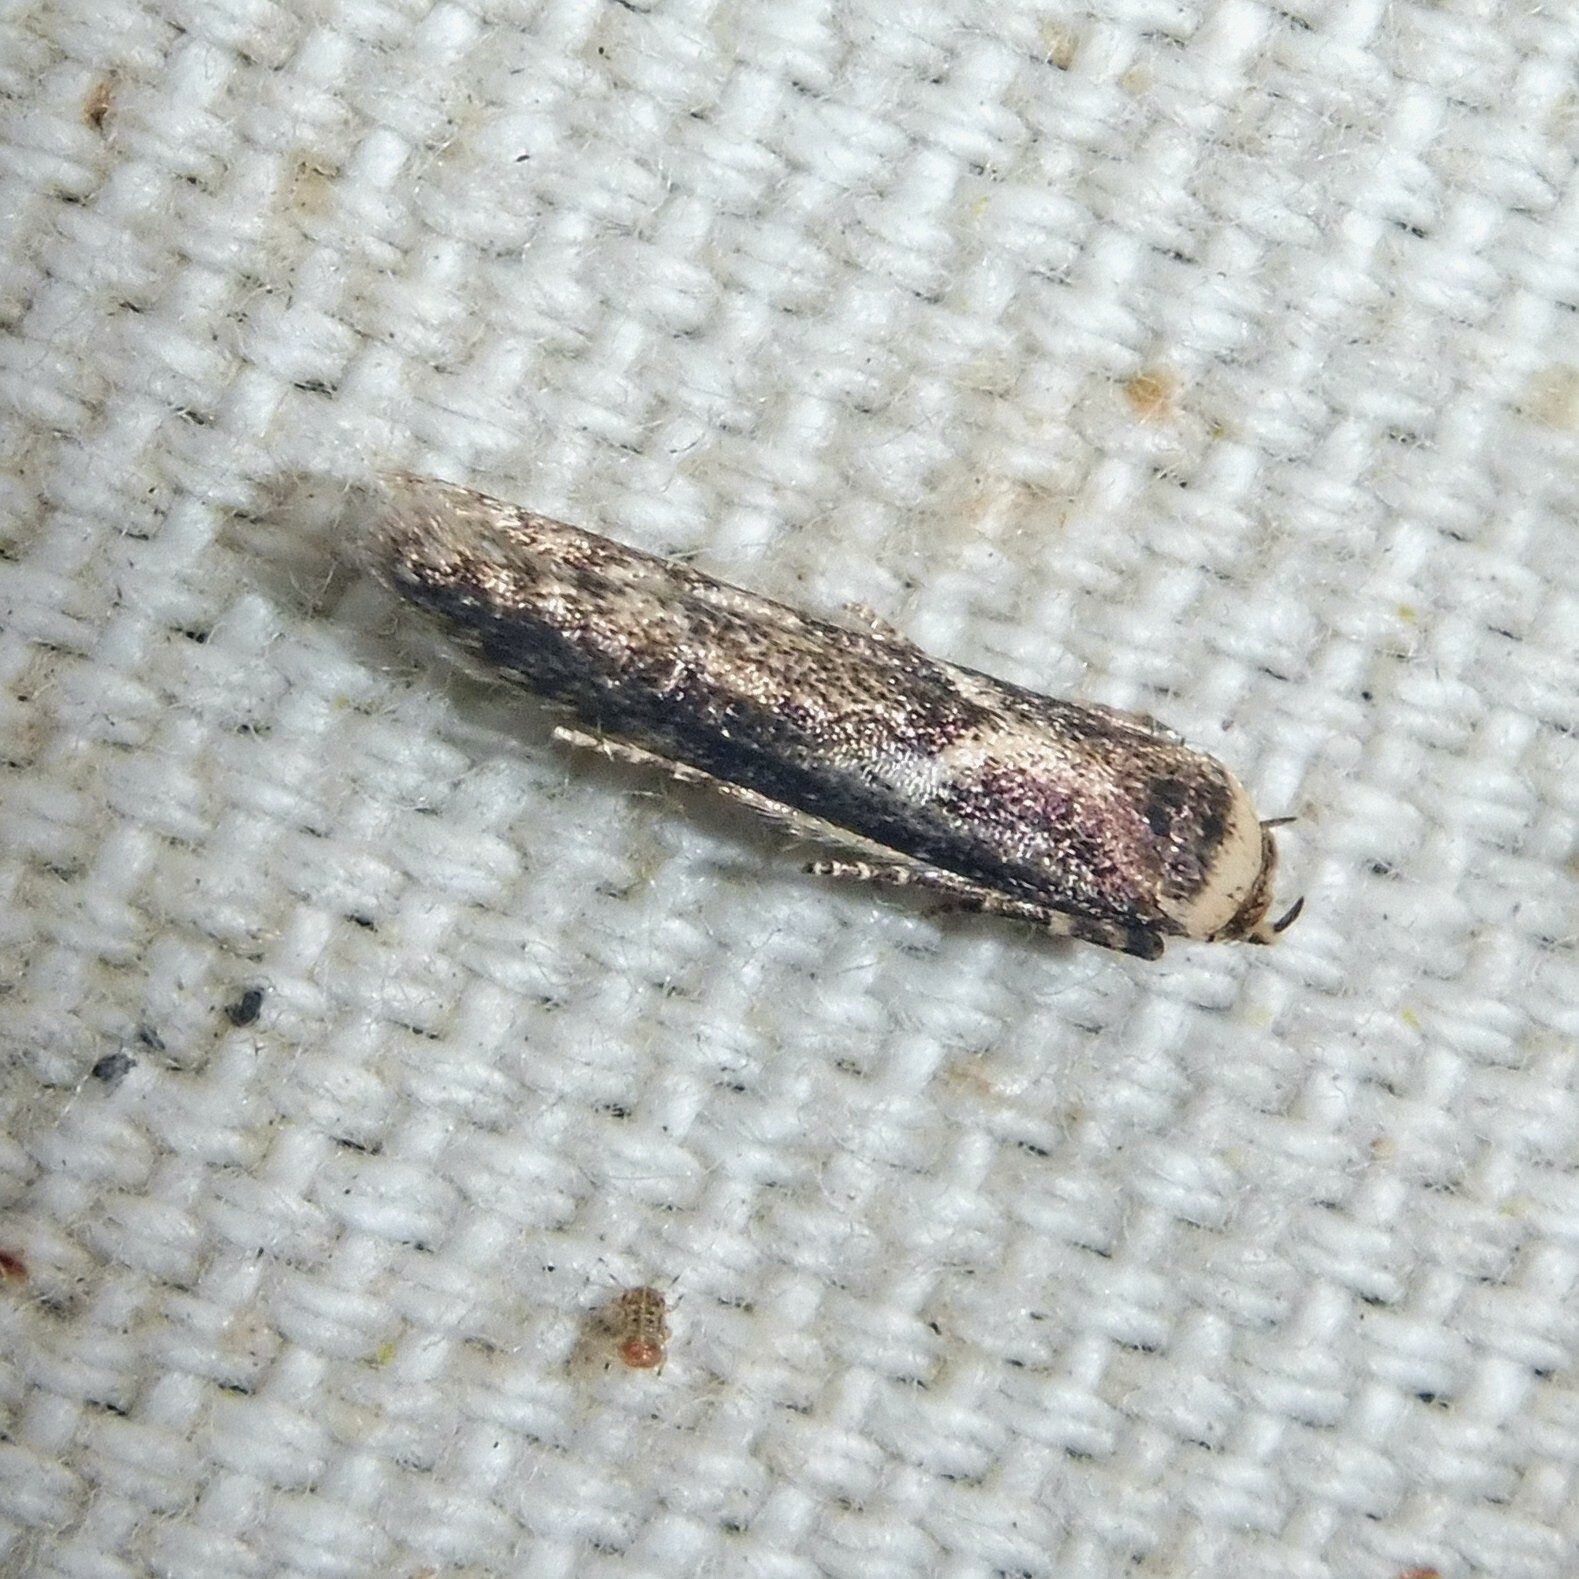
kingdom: Animalia
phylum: Arthropoda
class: Insecta
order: Lepidoptera
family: Blastobasidae
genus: Blastobasis
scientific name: Blastobasis adustella
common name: Dingy dowd
